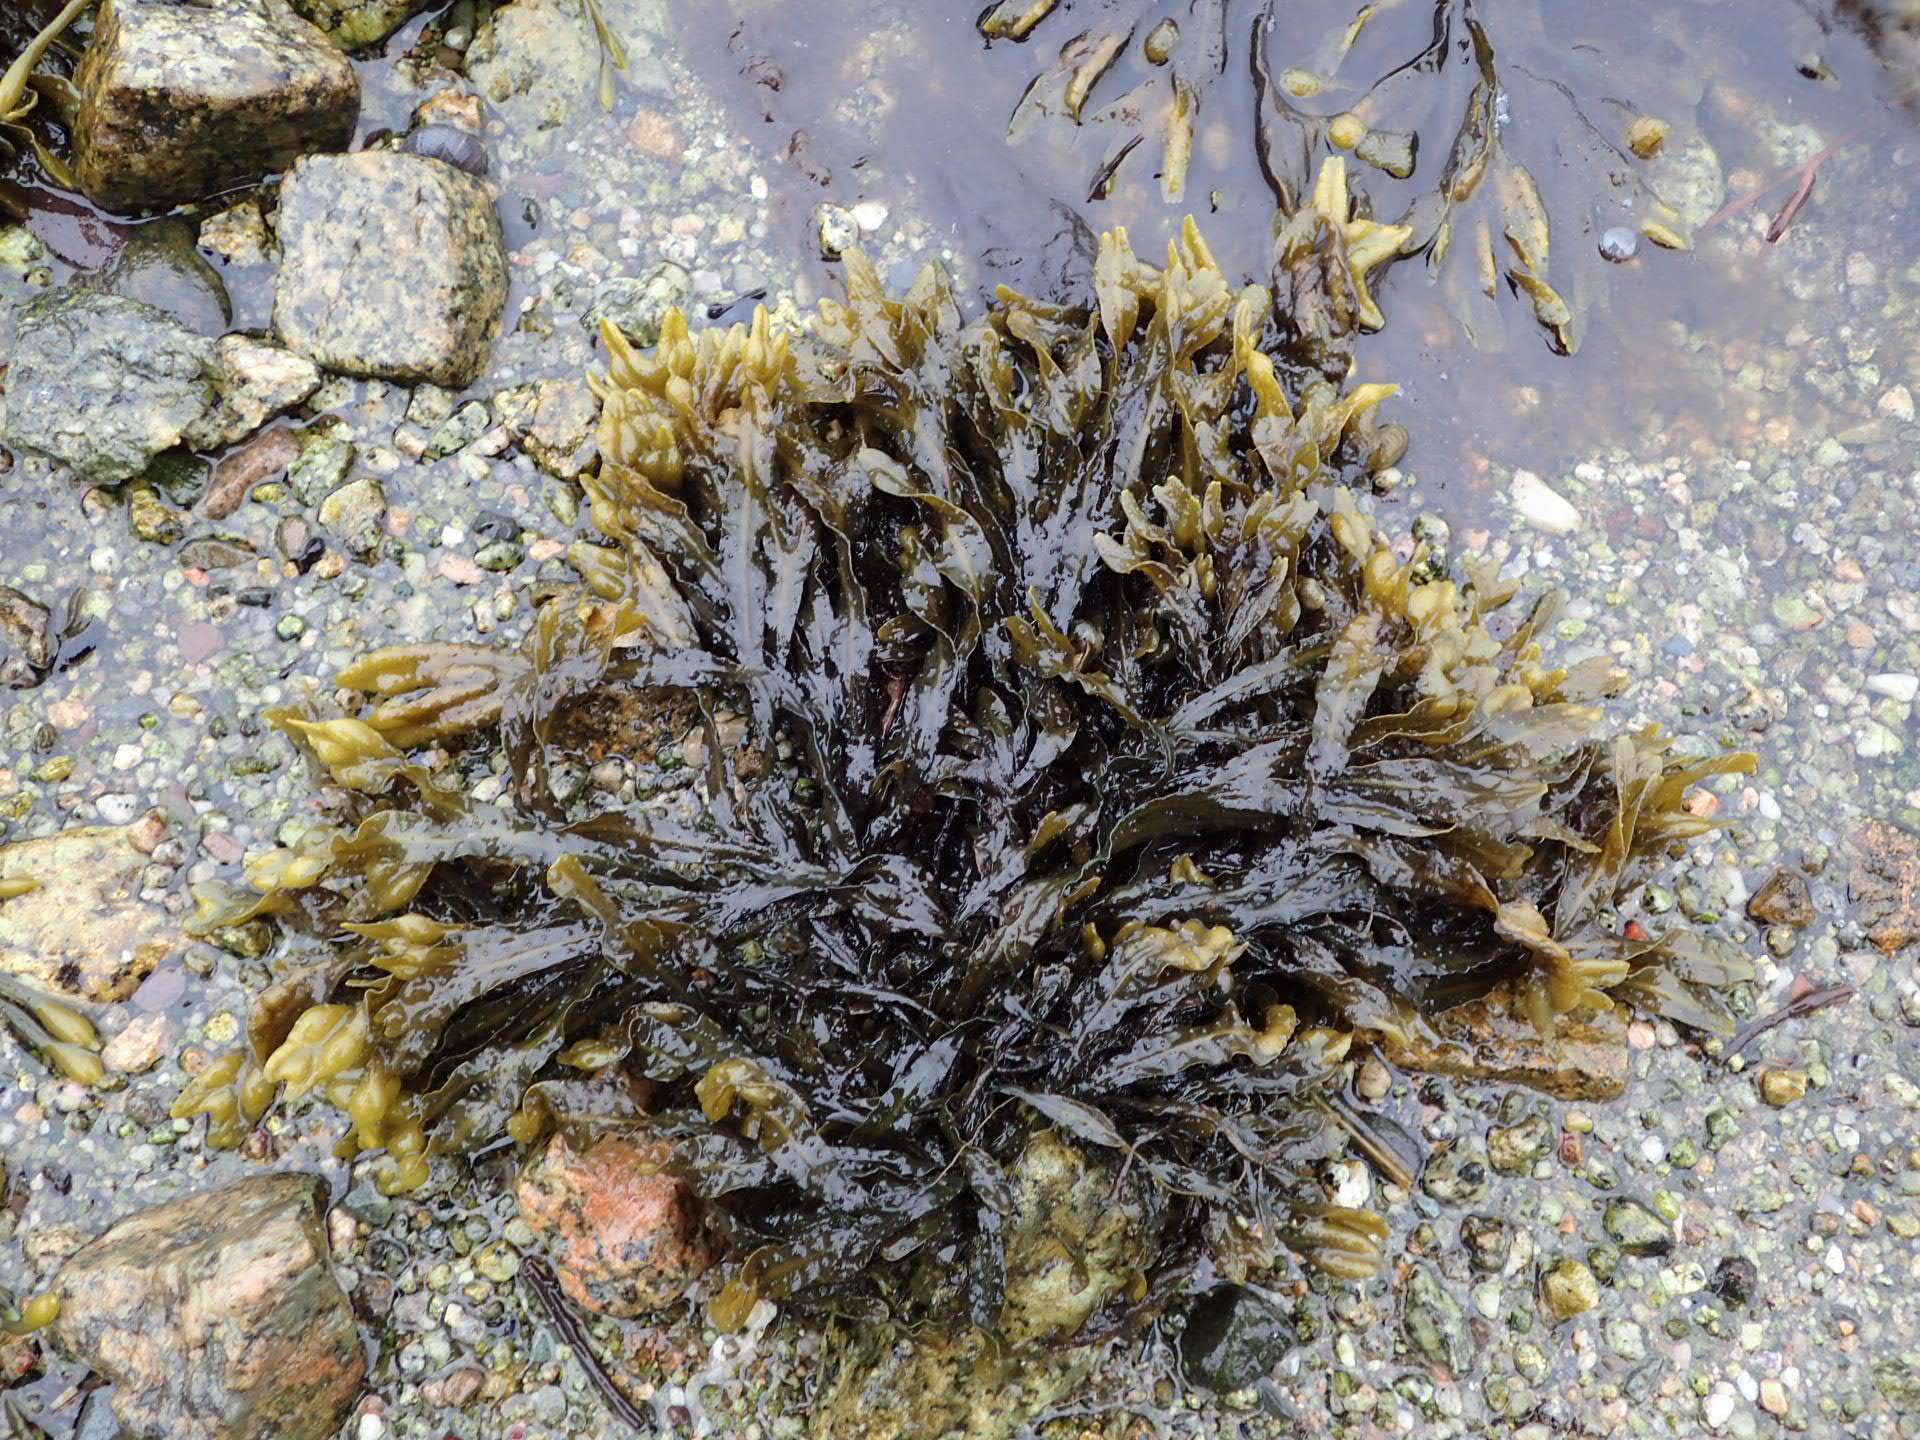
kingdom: Chromista
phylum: Ochrophyta
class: Phaeophyceae
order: Fucales
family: Fucaceae
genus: Fucus
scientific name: Fucus spiralis
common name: Spiral wrack
